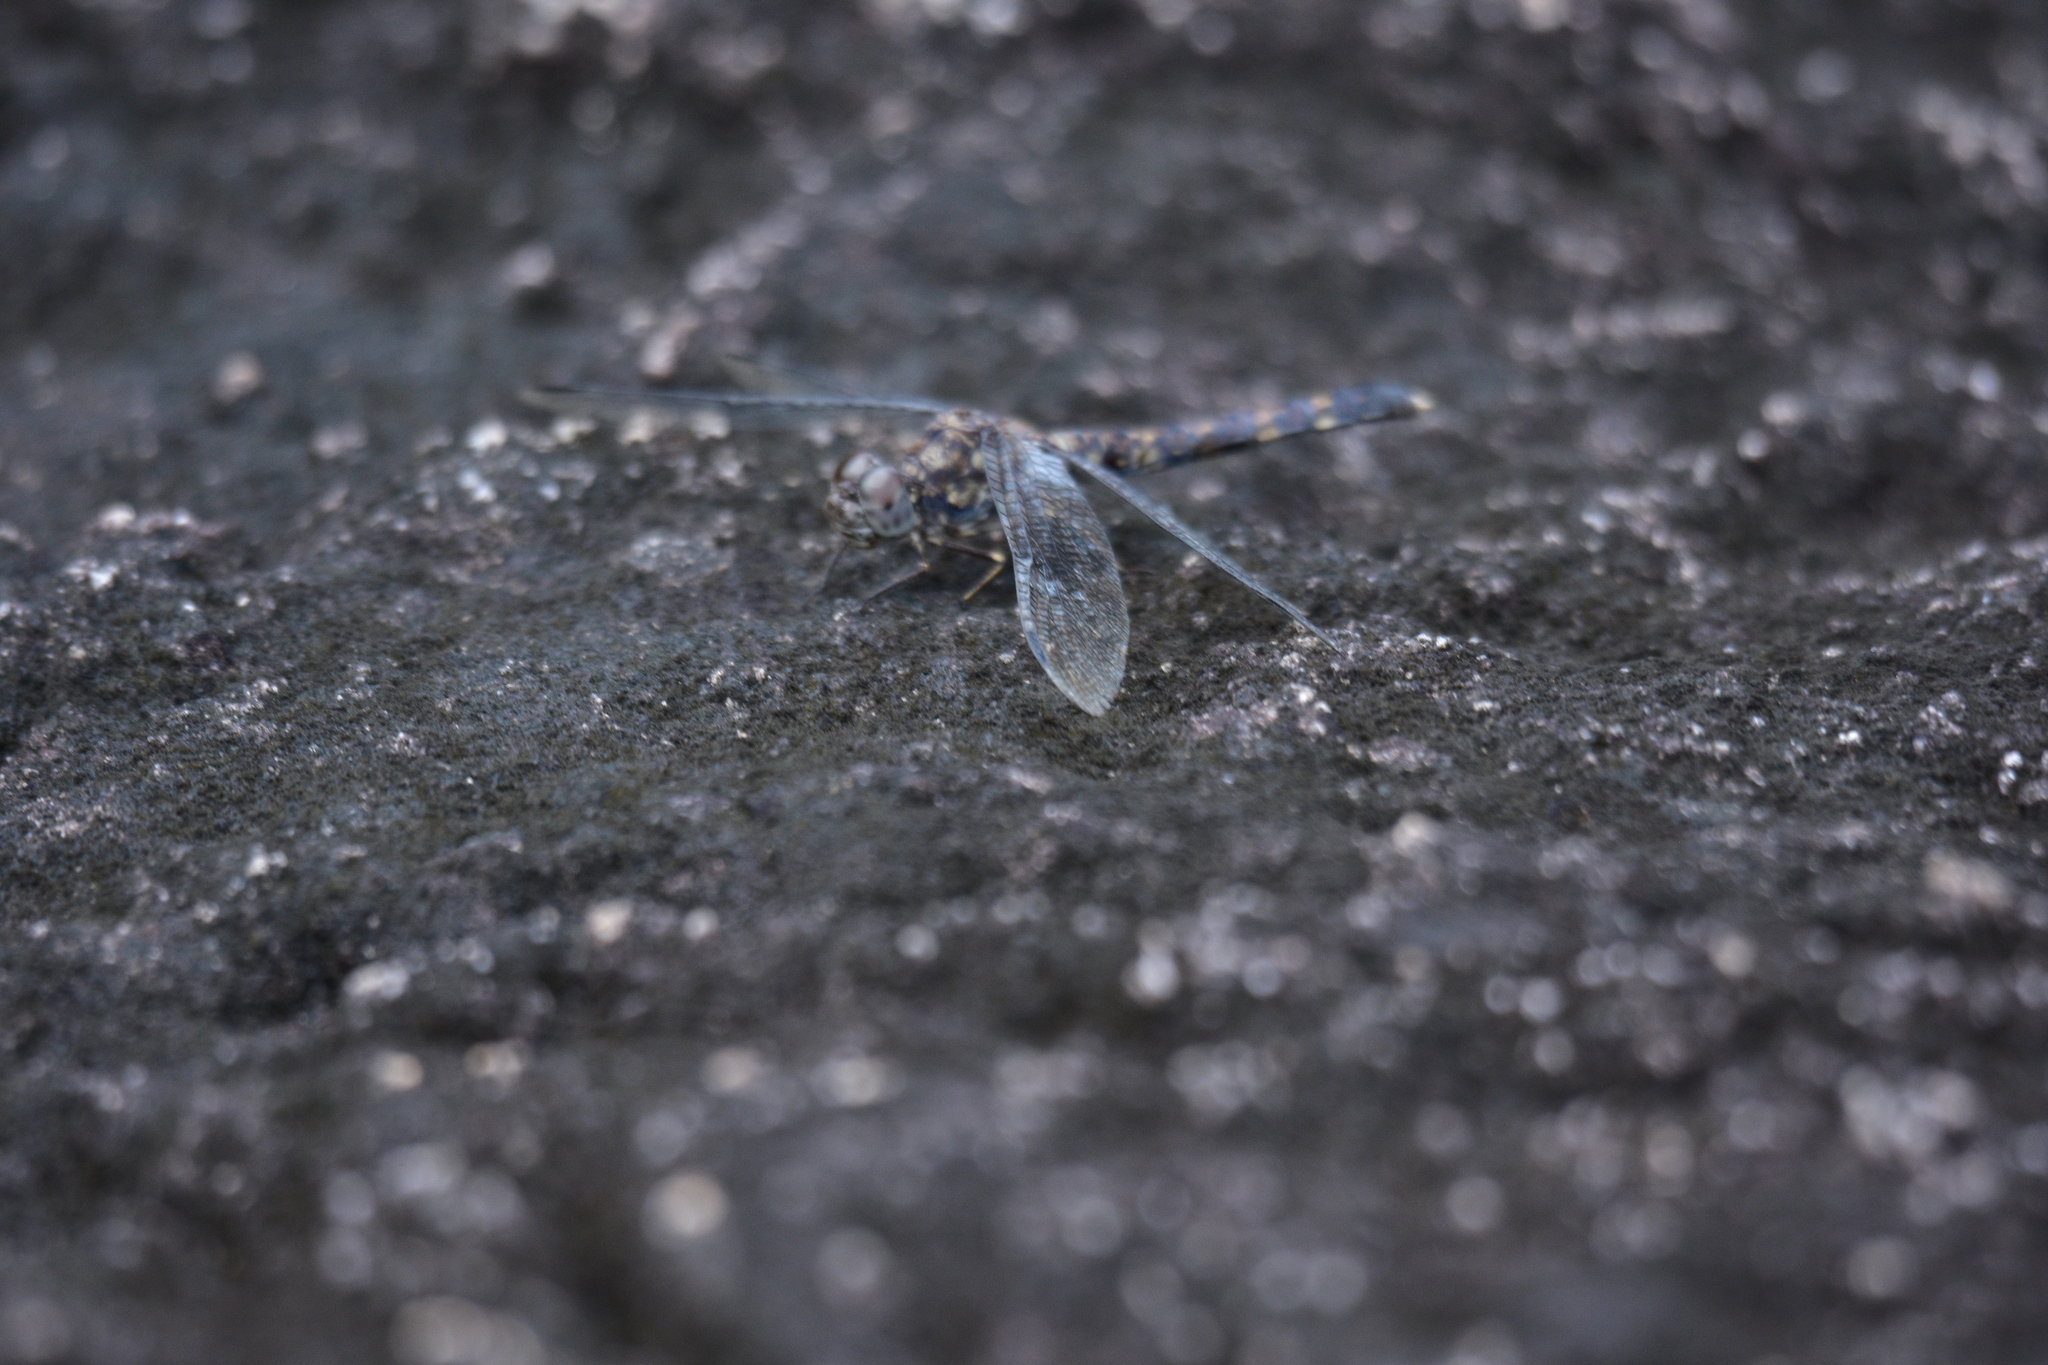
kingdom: Animalia
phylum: Arthropoda
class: Insecta
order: Odonata
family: Libellulidae
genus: Bradinopyga
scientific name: Bradinopyga geminata
